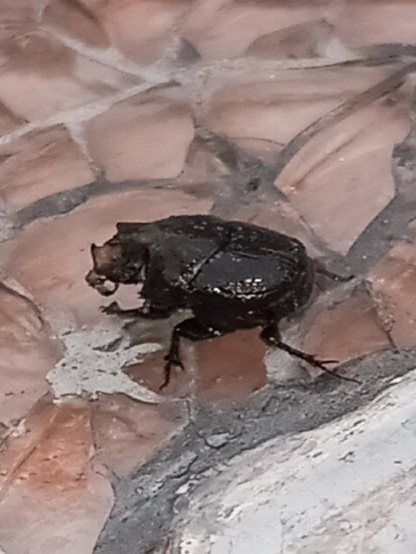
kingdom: Animalia
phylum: Arthropoda
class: Insecta
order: Coleoptera
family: Scarabaeidae
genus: Onthophagus
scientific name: Onthophagus hecate
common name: Scooped scarab
